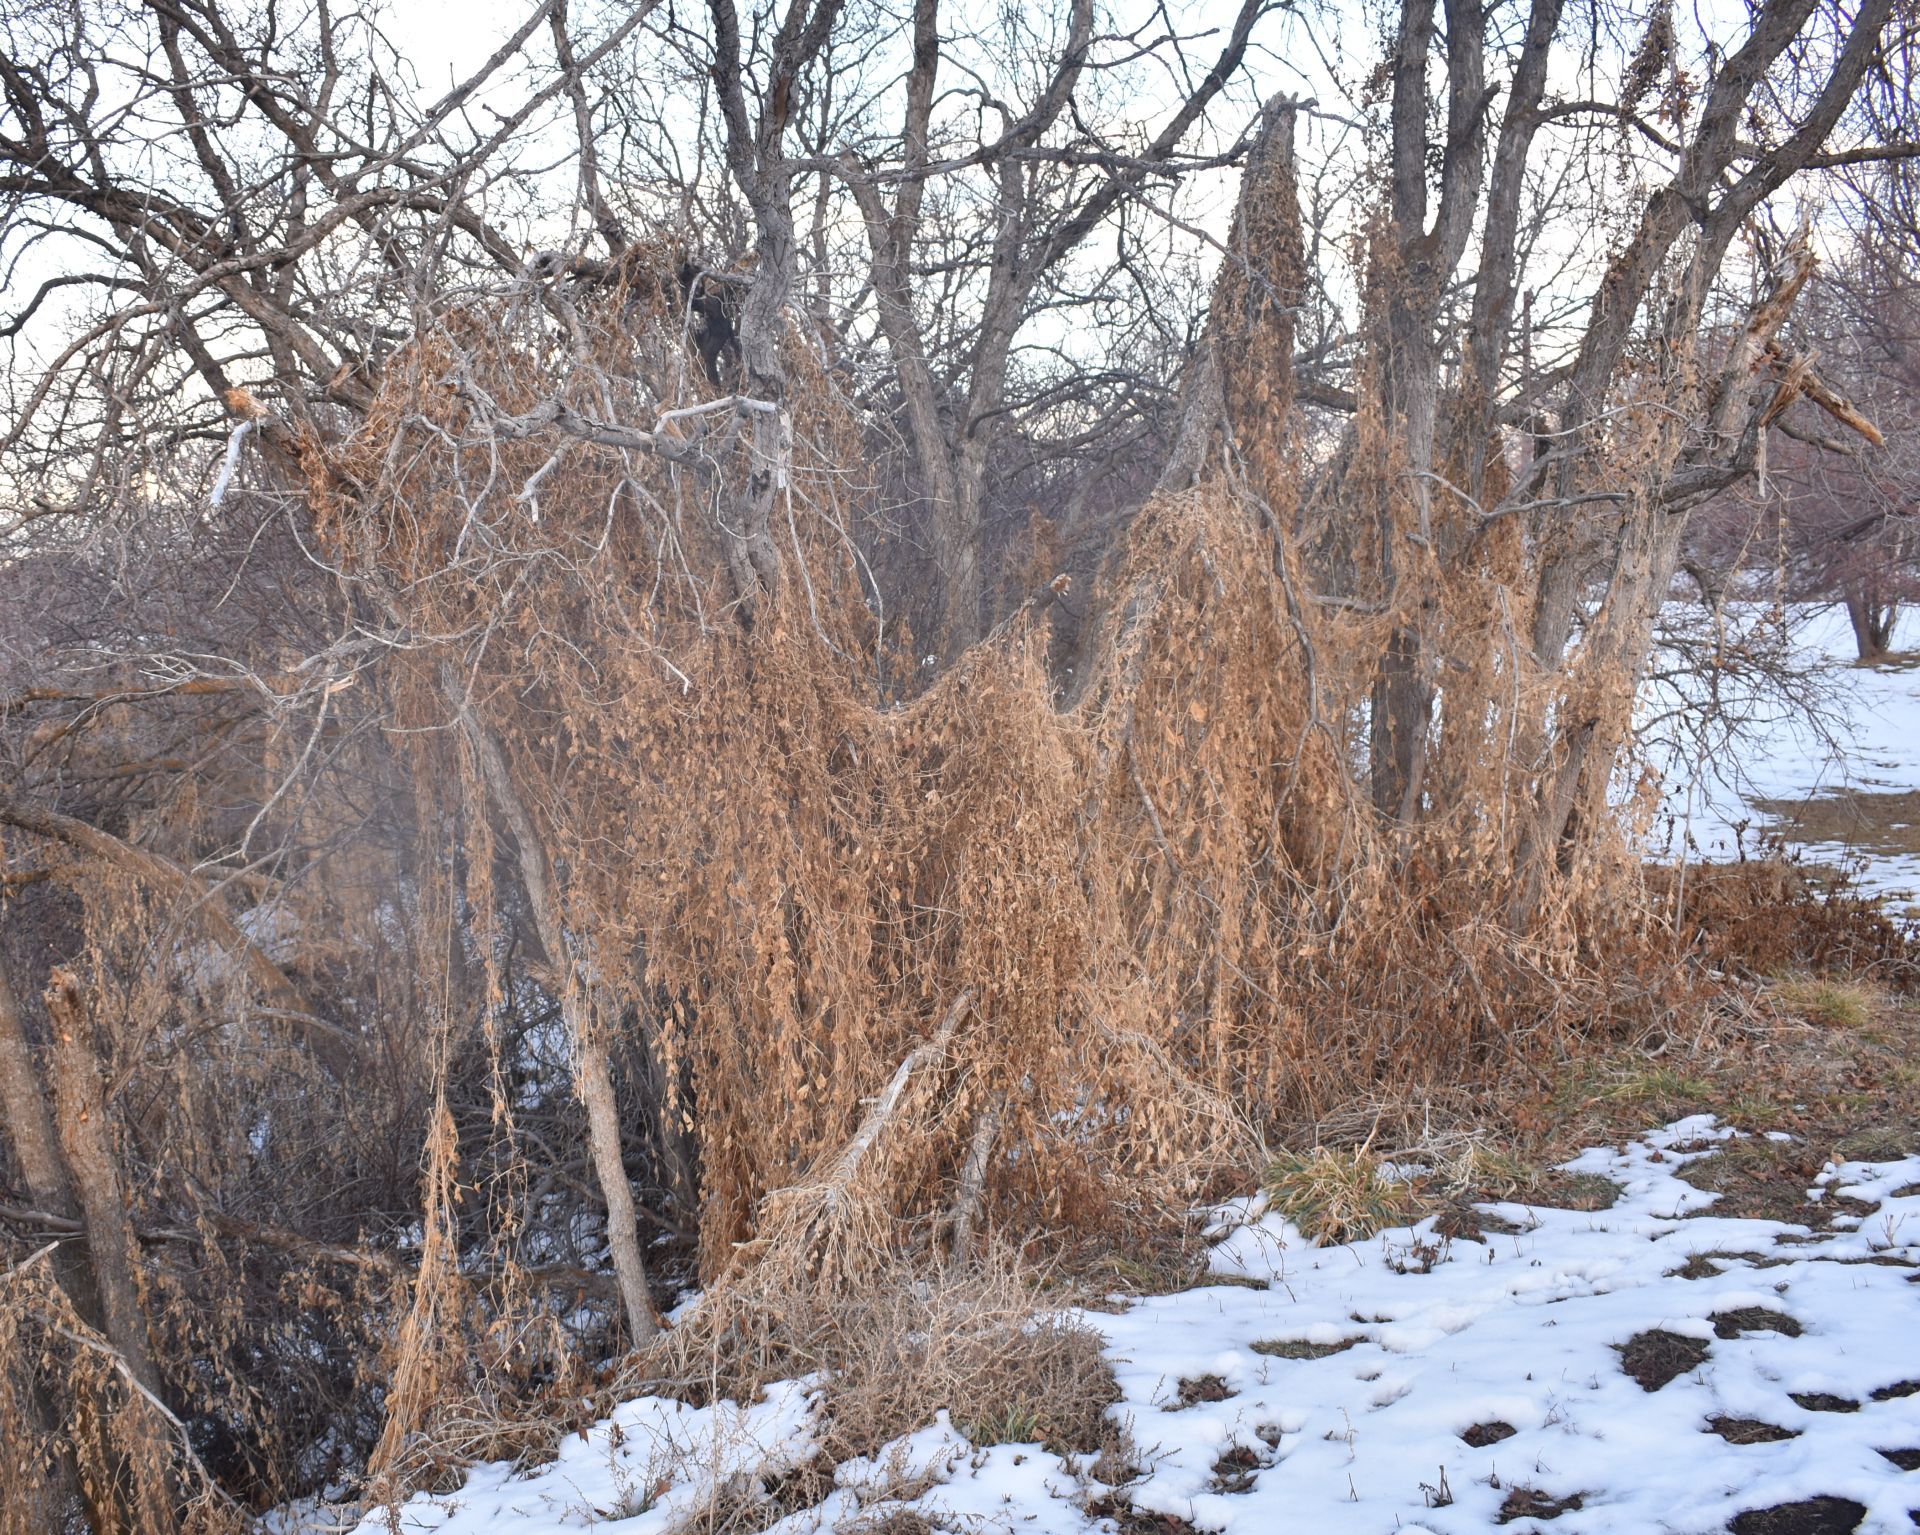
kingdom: Plantae
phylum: Tracheophyta
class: Magnoliopsida
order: Cucurbitales
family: Cucurbitaceae
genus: Bryonia
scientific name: Bryonia alba
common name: White bryony
